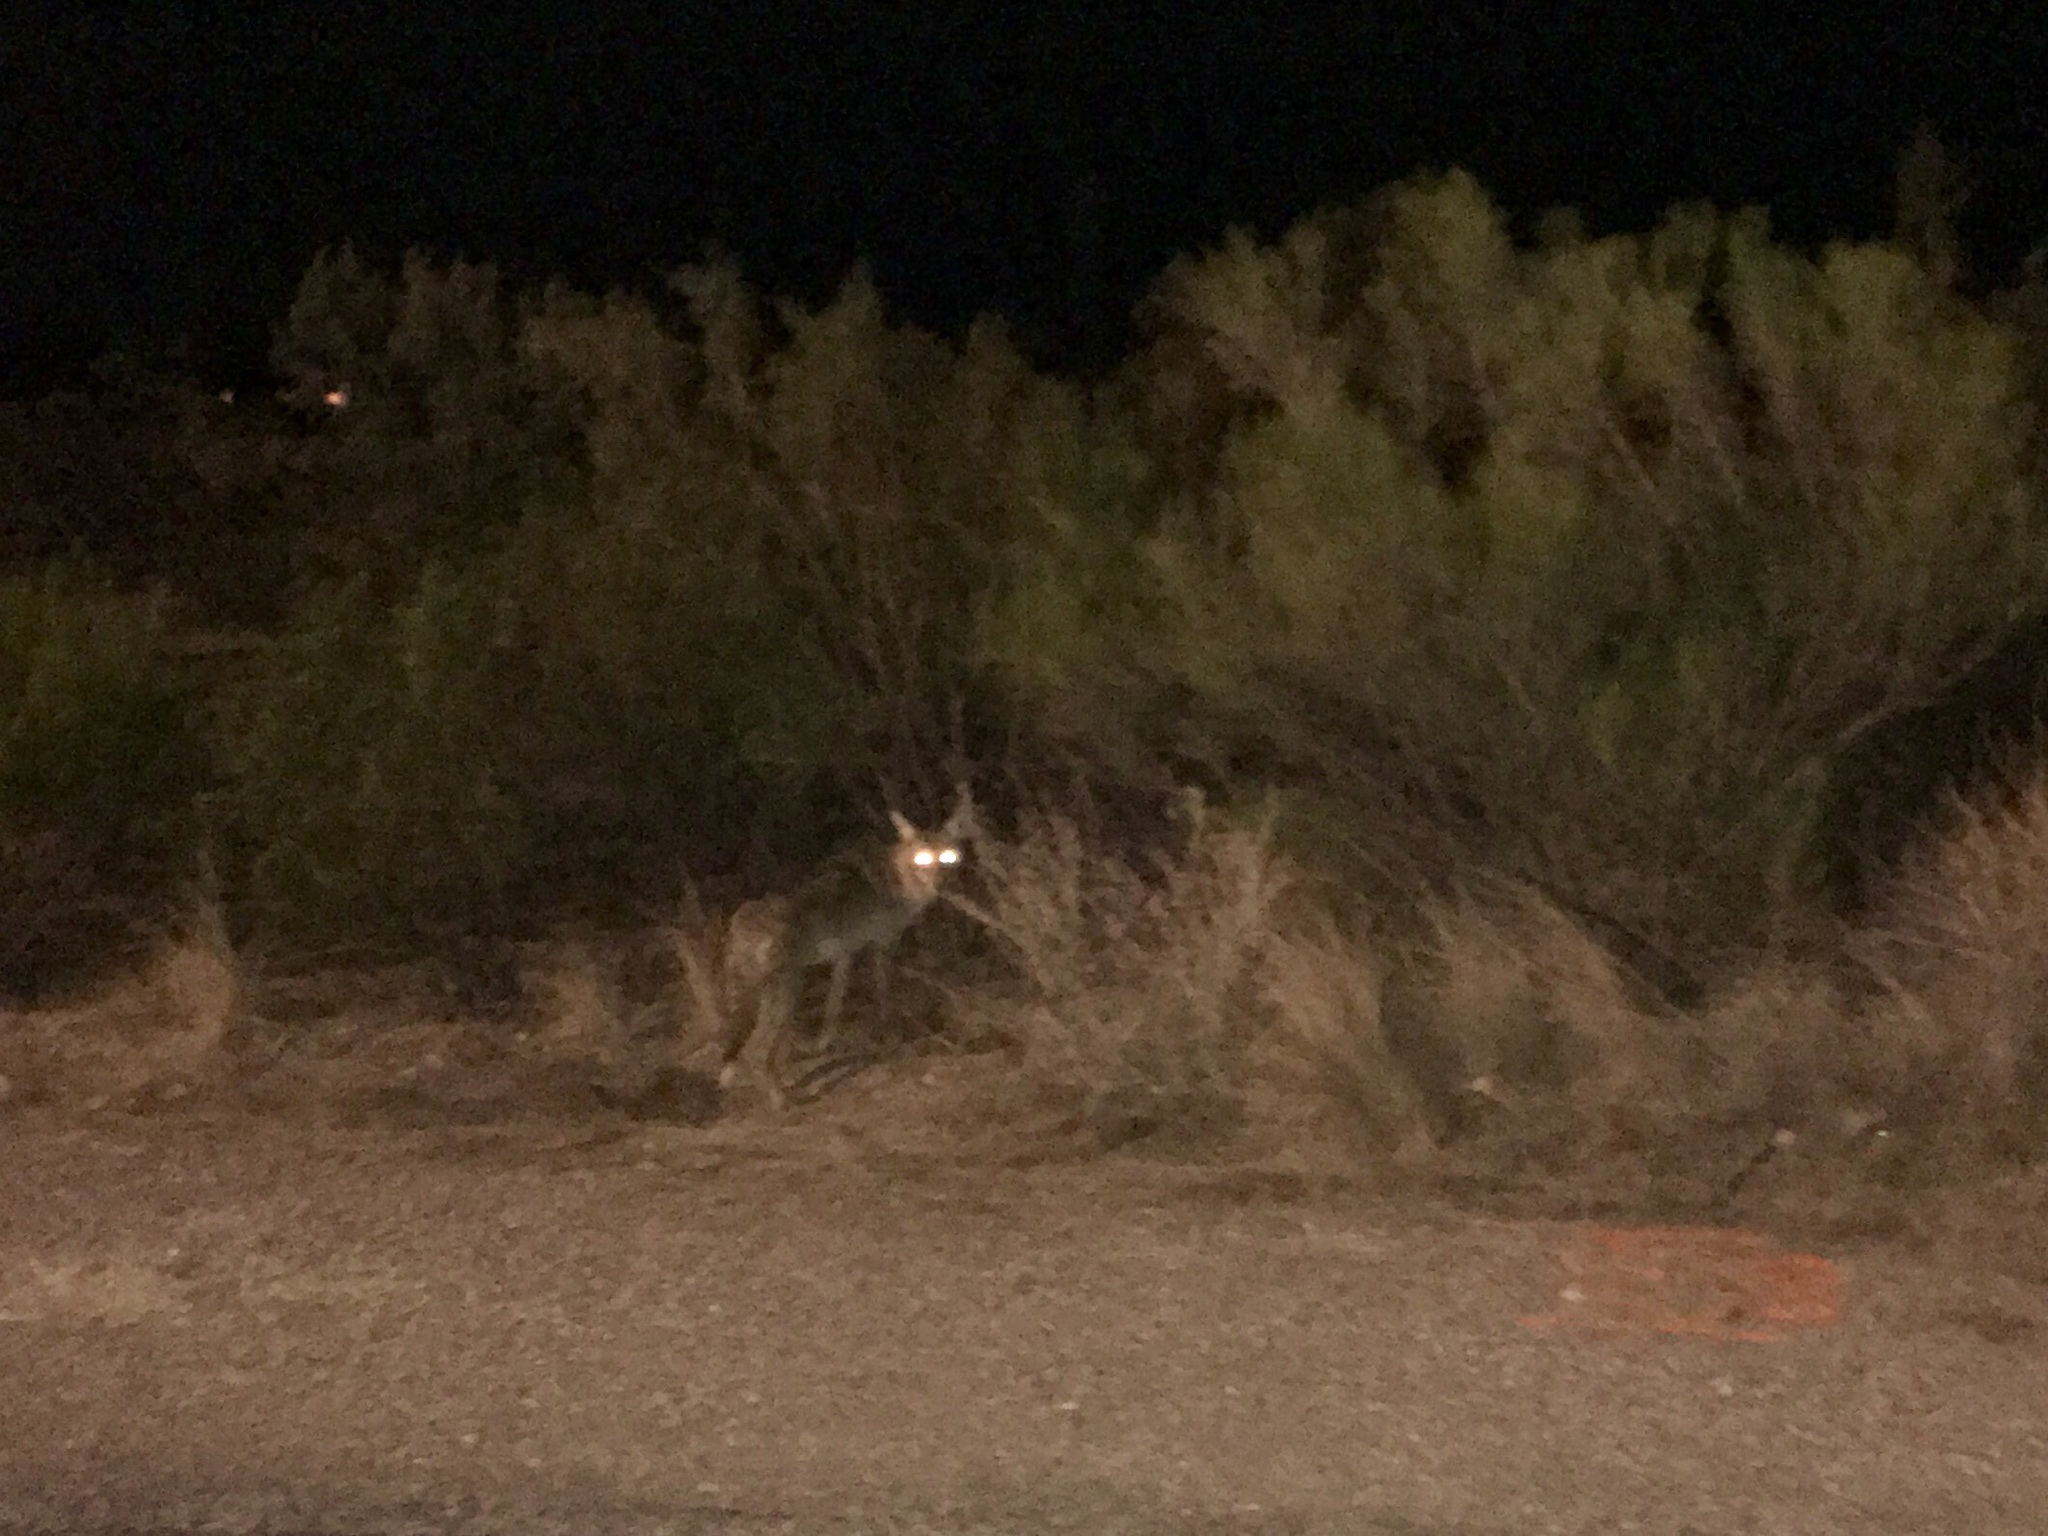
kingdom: Animalia
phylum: Chordata
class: Mammalia
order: Carnivora
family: Canidae
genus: Canis
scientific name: Canis latrans
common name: Coyote
